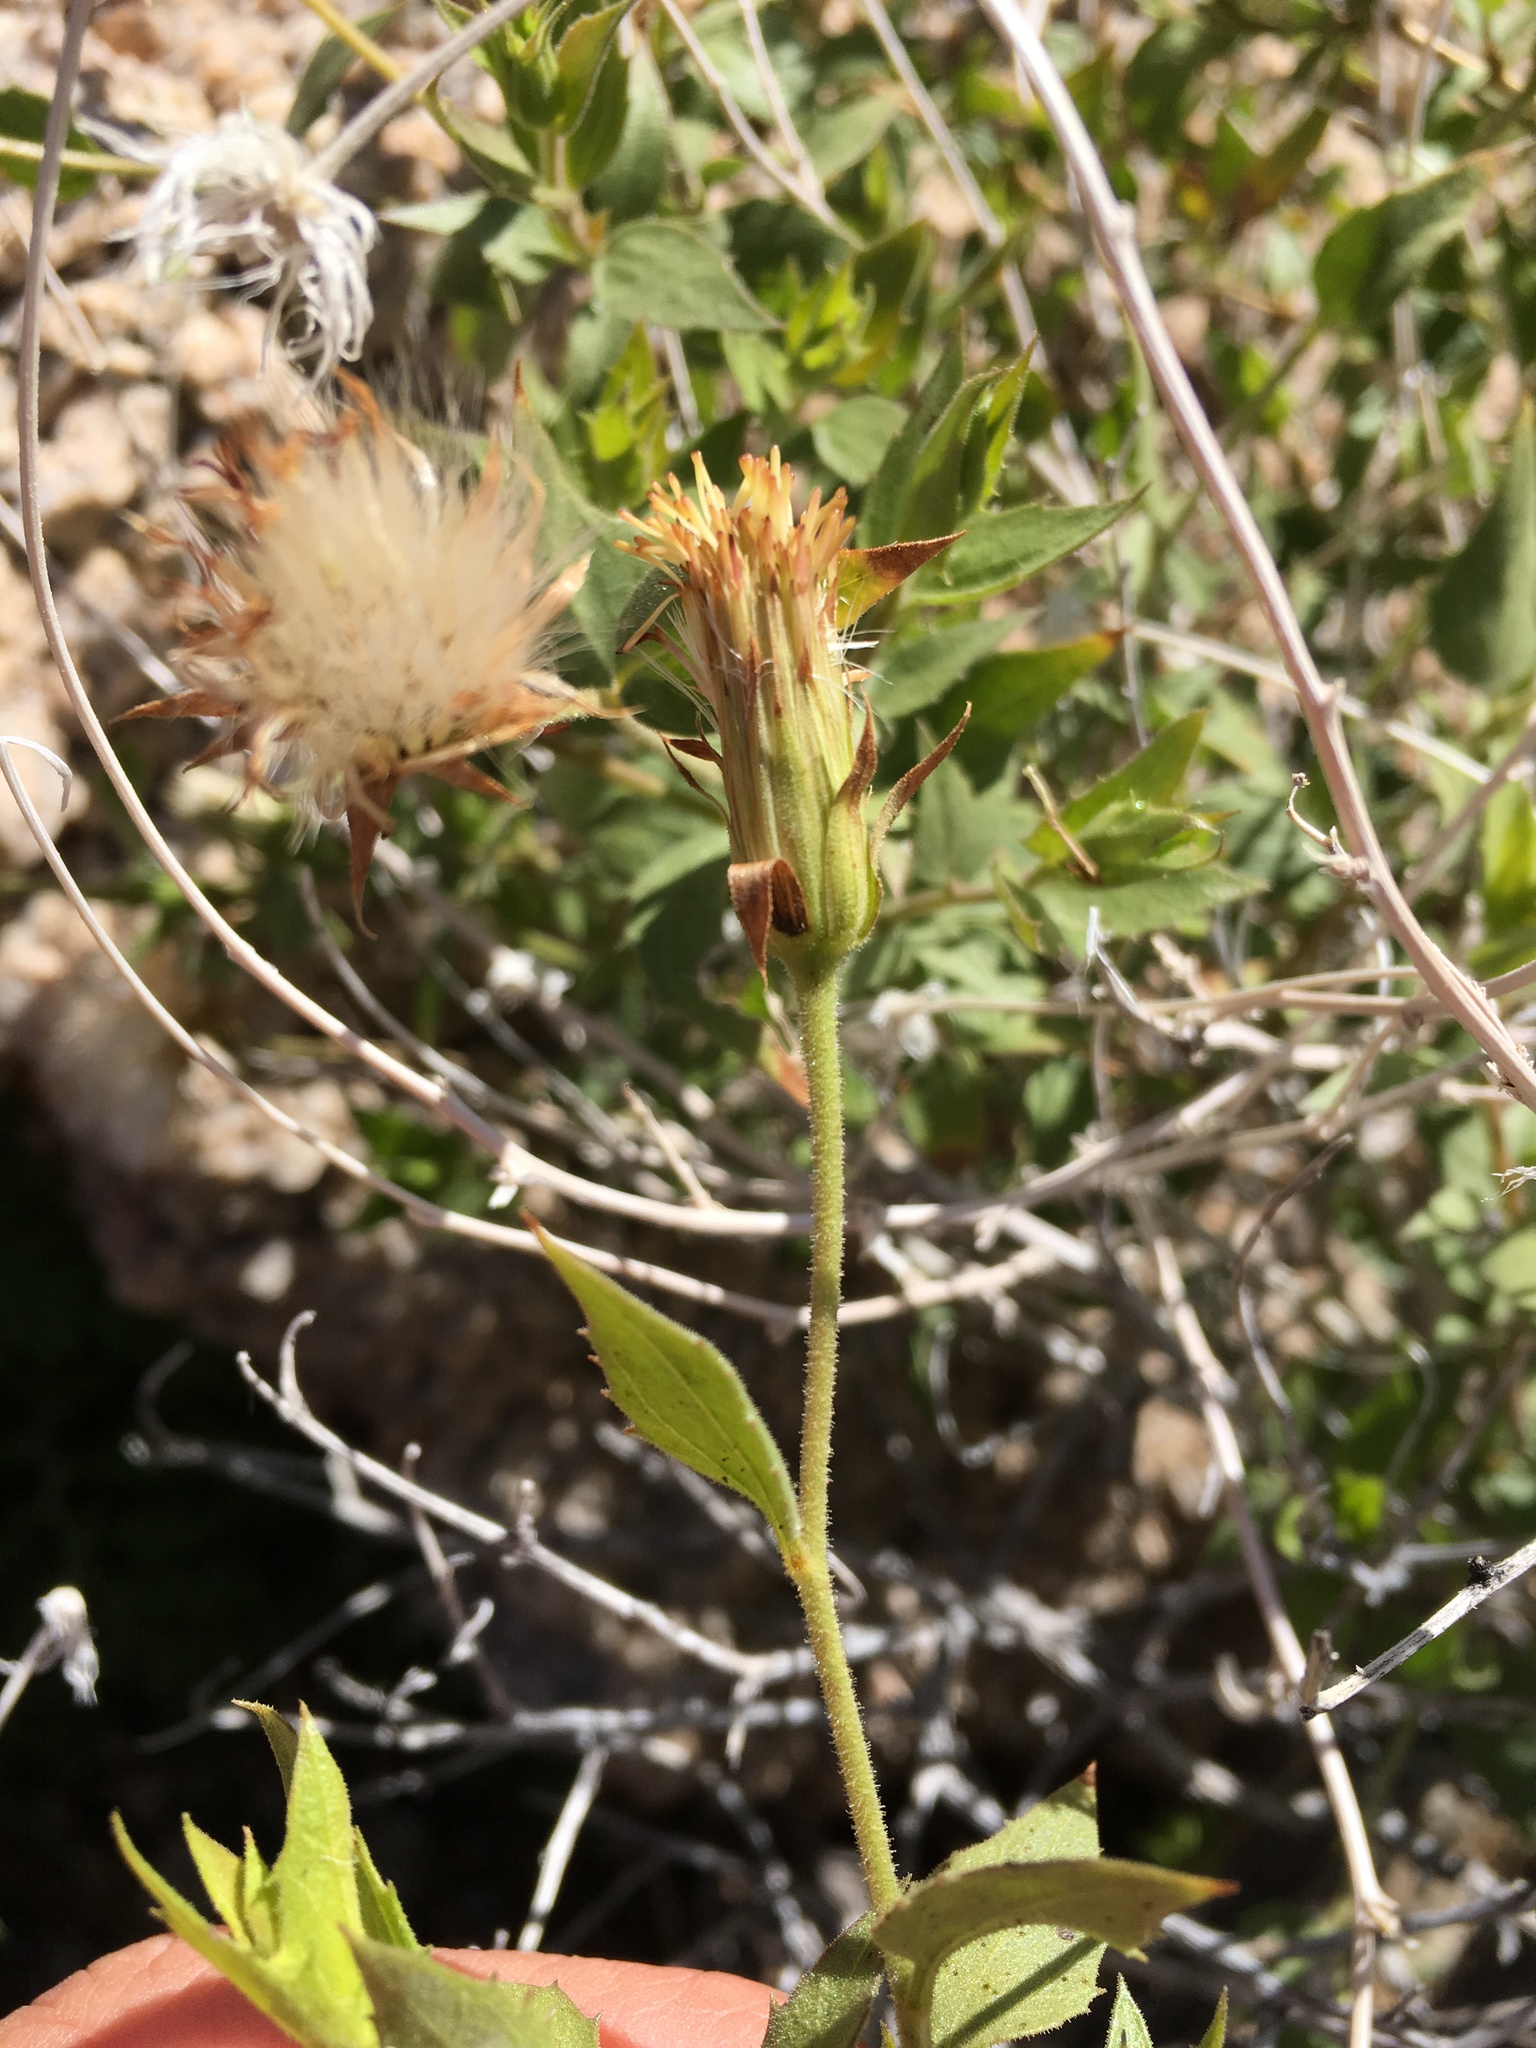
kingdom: Plantae
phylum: Tracheophyta
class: Magnoliopsida
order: Asterales
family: Asteraceae
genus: Brickellia
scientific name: Brickellia atractyloides
